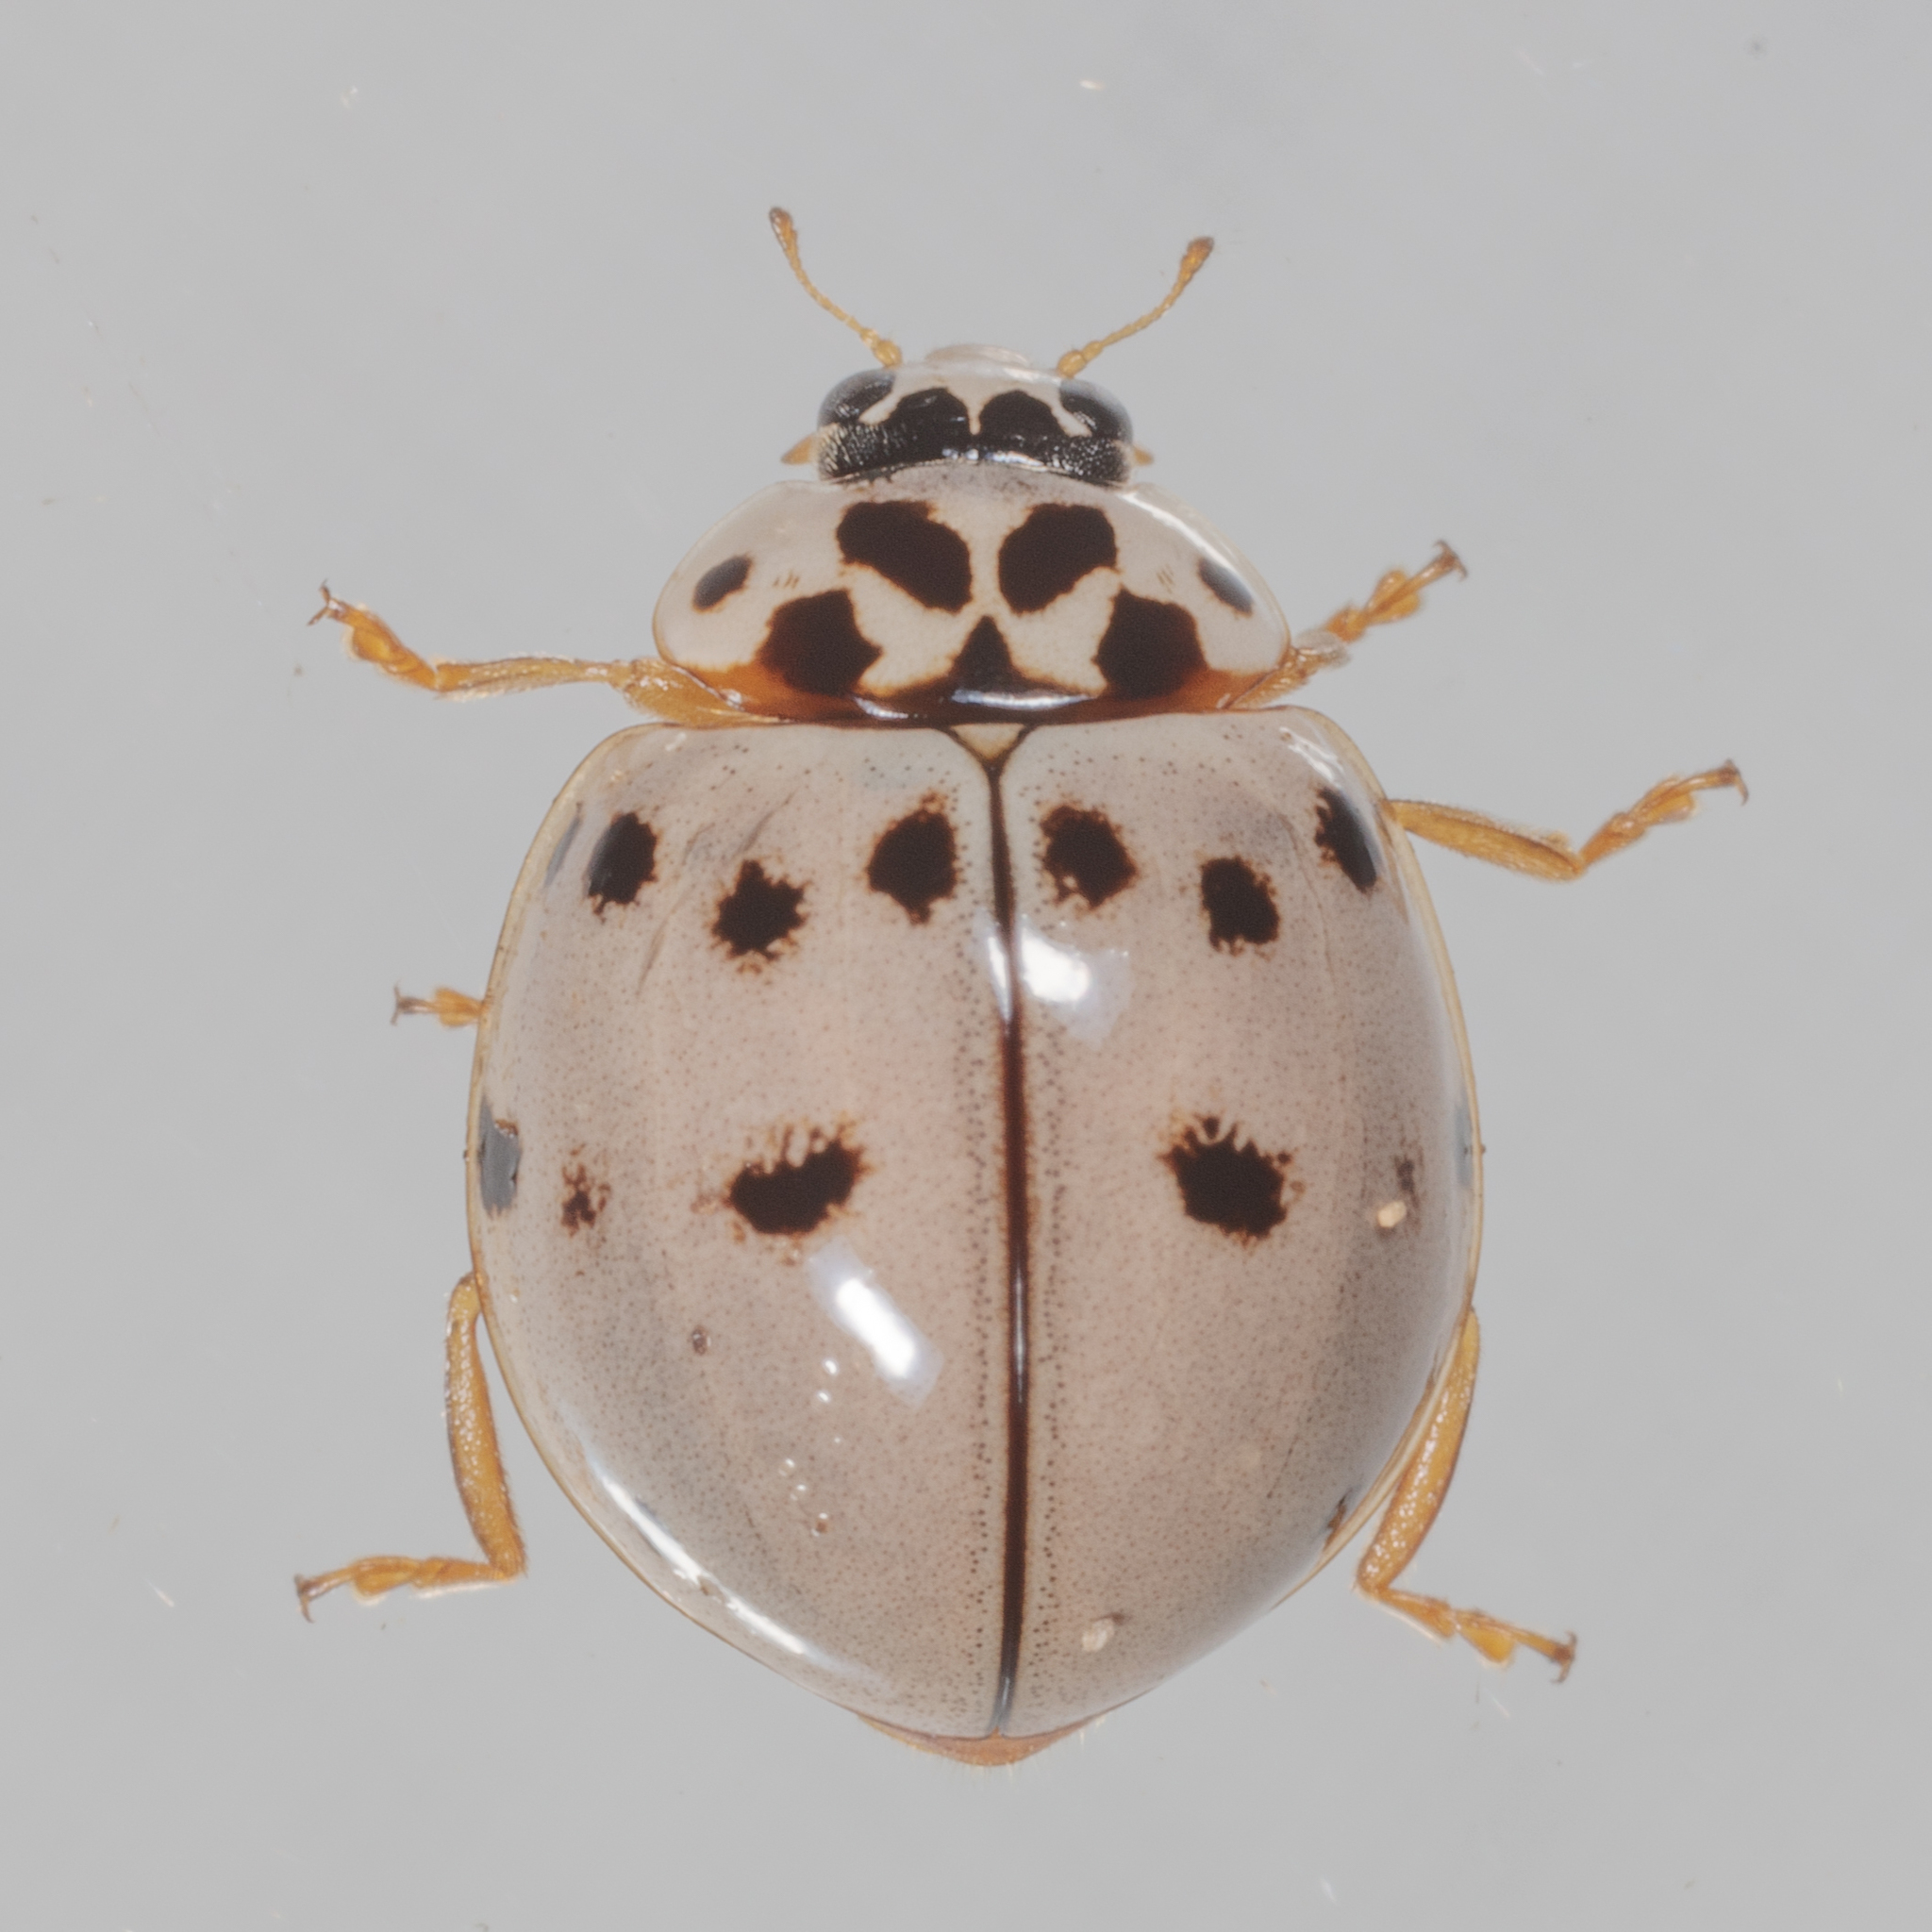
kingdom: Animalia
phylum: Arthropoda
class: Insecta
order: Coleoptera
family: Coccinellidae
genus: Olla
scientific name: Olla v-nigrum
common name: Ashy gray lady beetle
